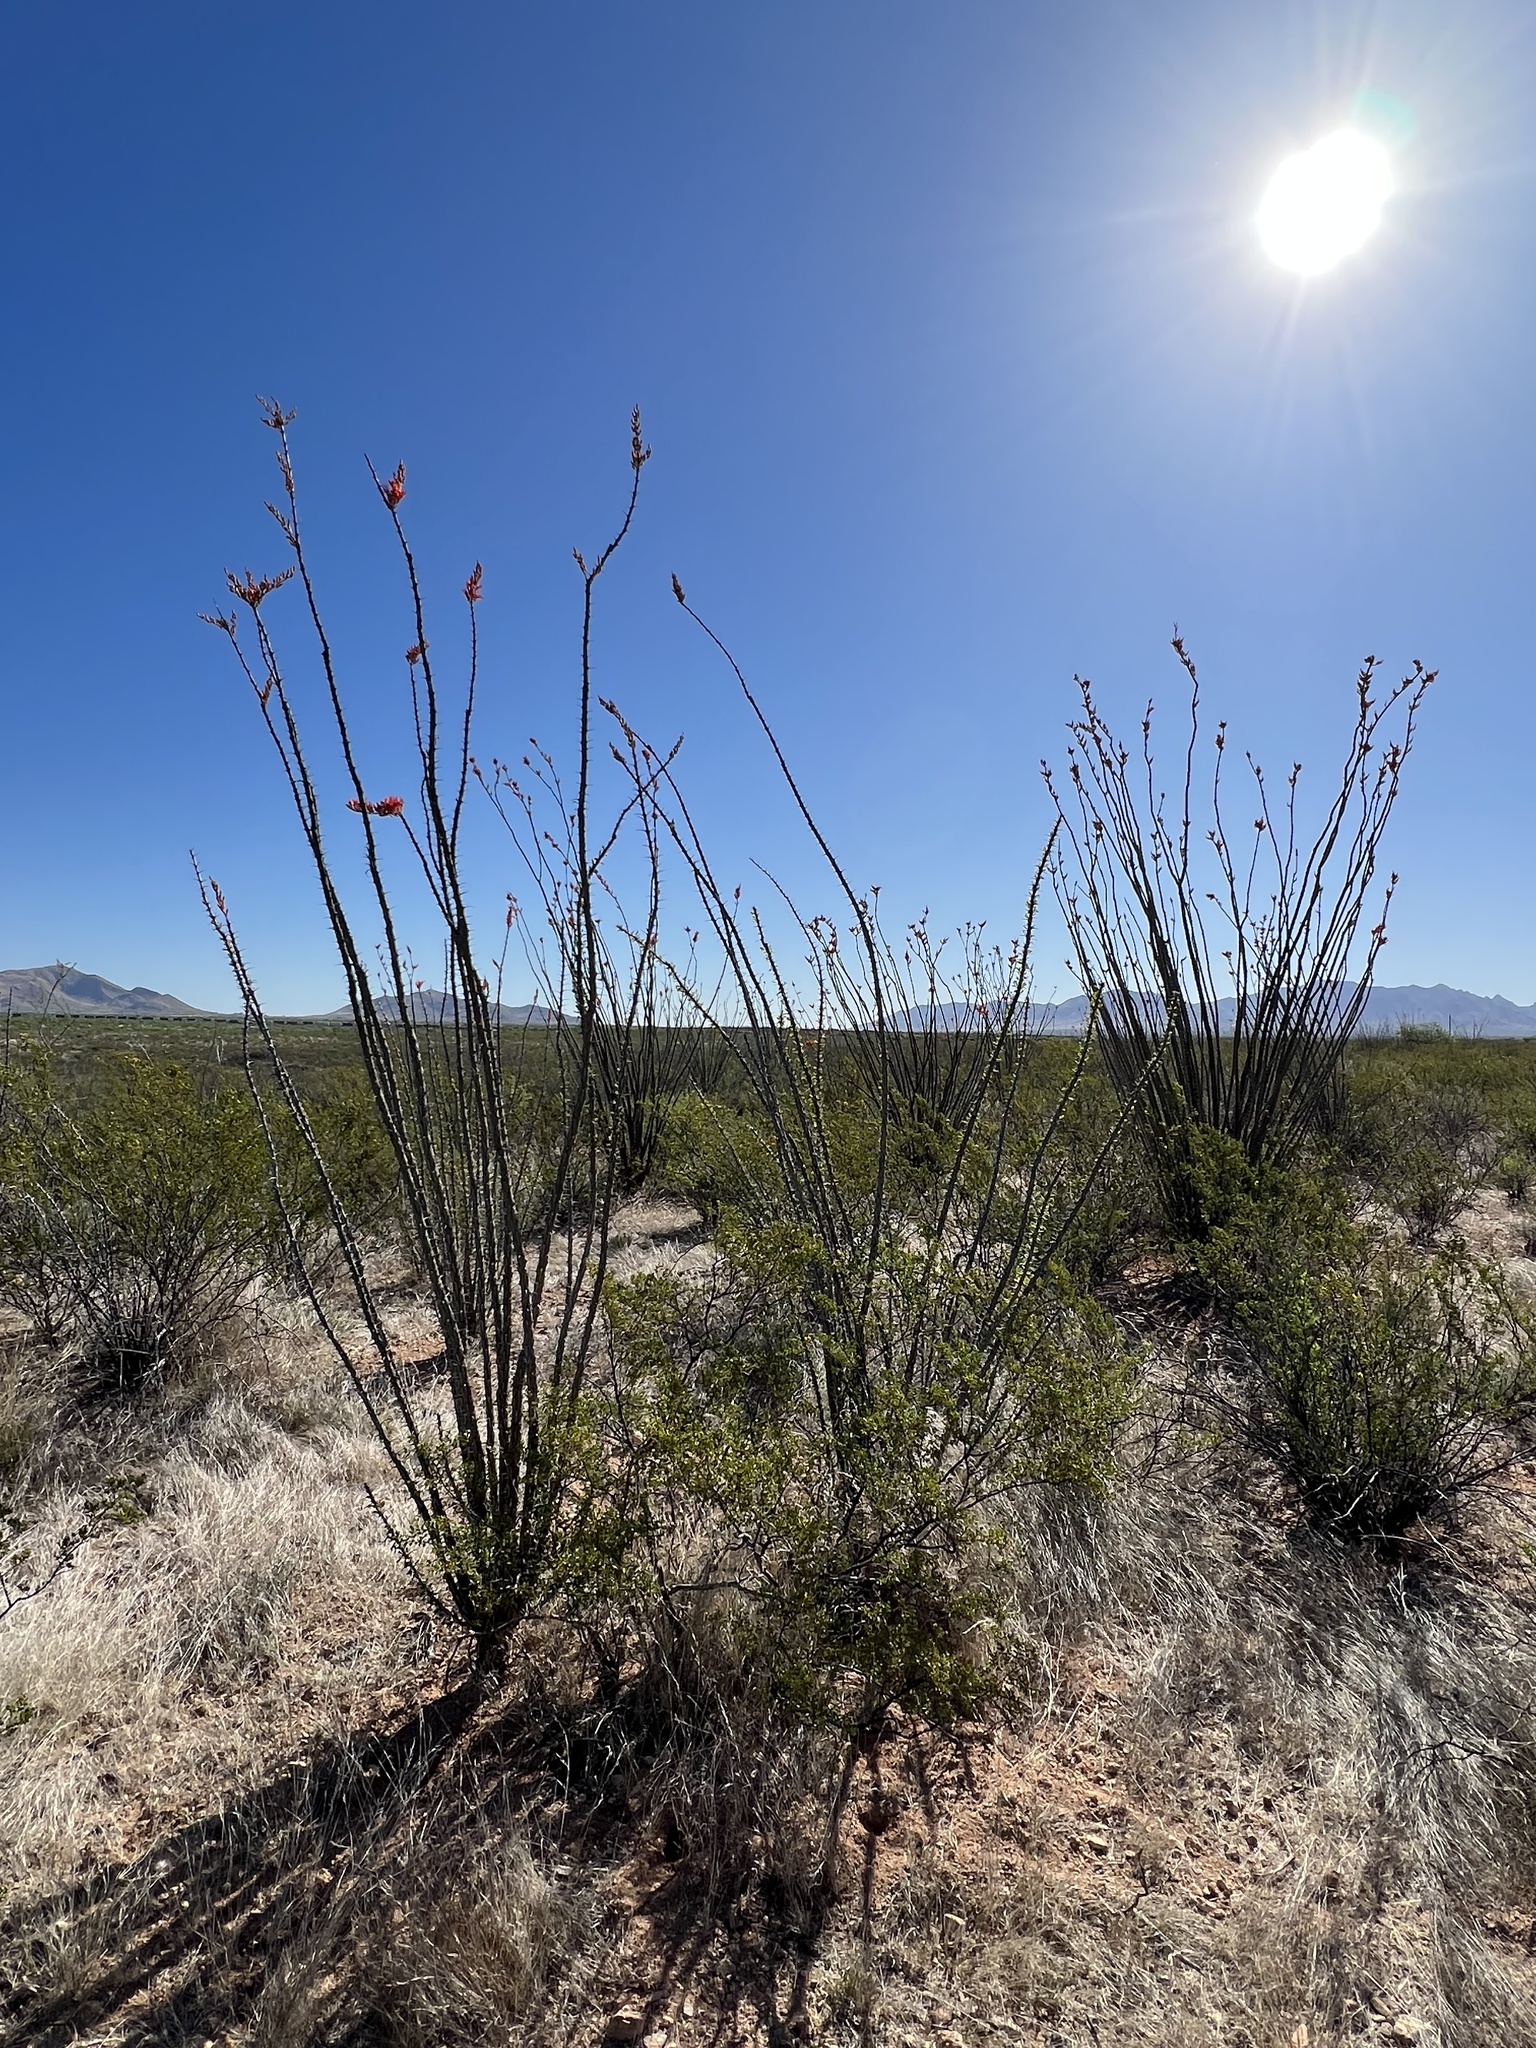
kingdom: Plantae
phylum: Tracheophyta
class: Magnoliopsida
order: Ericales
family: Fouquieriaceae
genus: Fouquieria
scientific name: Fouquieria splendens
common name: Vine-cactus
